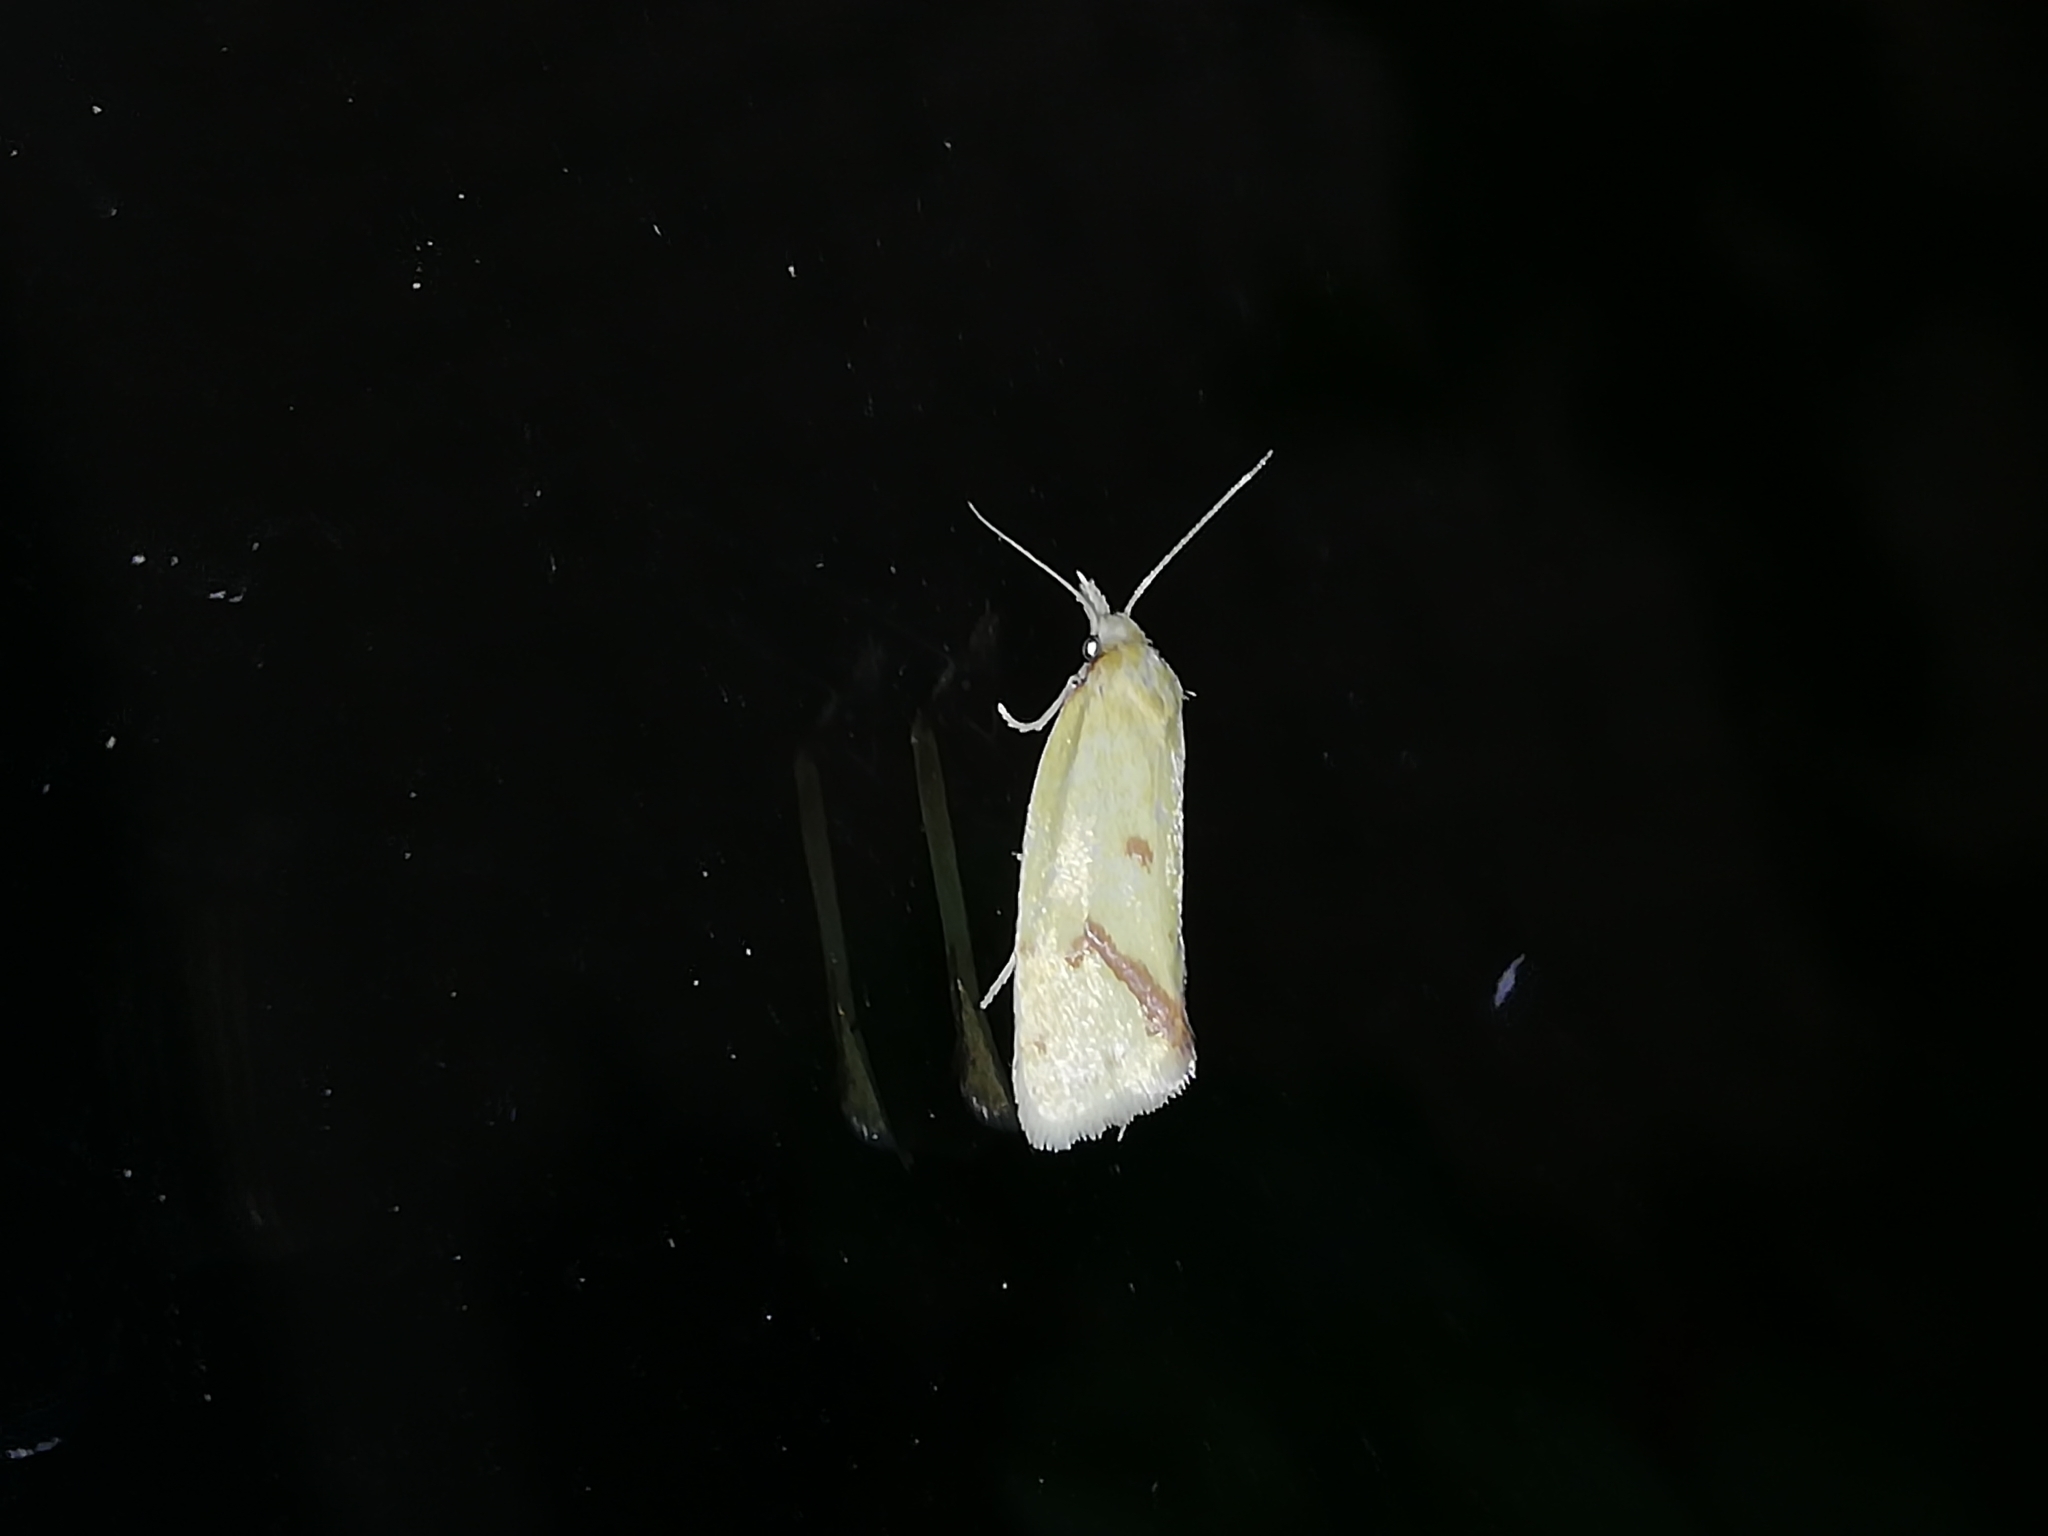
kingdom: Animalia
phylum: Arthropoda
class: Insecta
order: Lepidoptera
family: Tortricidae
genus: Agapeta
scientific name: Agapeta hamana
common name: Common yellow conch
